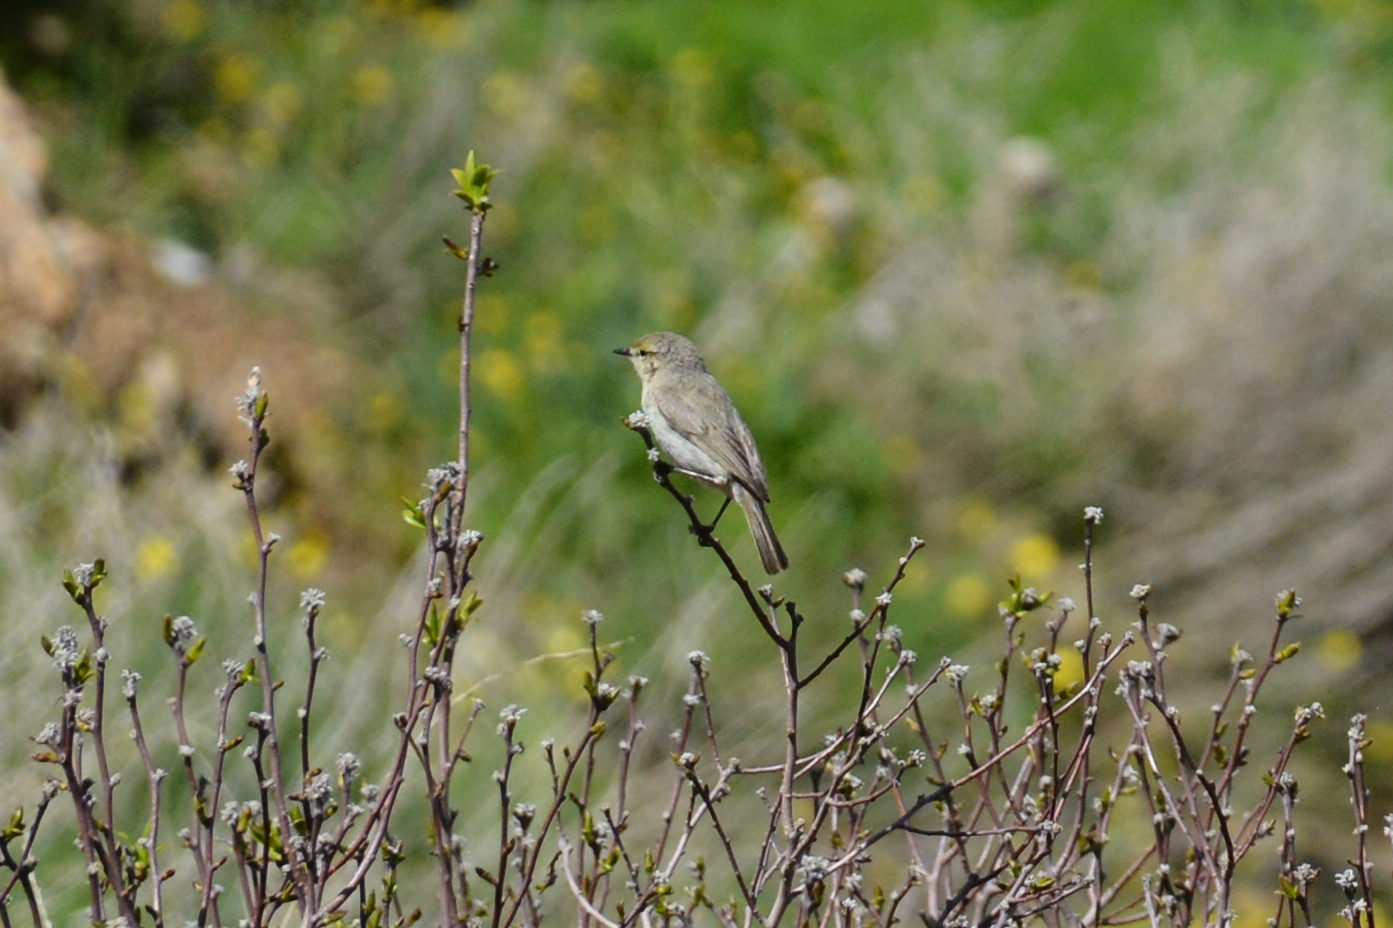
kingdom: Animalia
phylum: Chordata
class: Aves
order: Passeriformes
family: Phylloscopidae
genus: Phylloscopus
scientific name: Phylloscopus neglectus
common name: Plain leaf warbler
